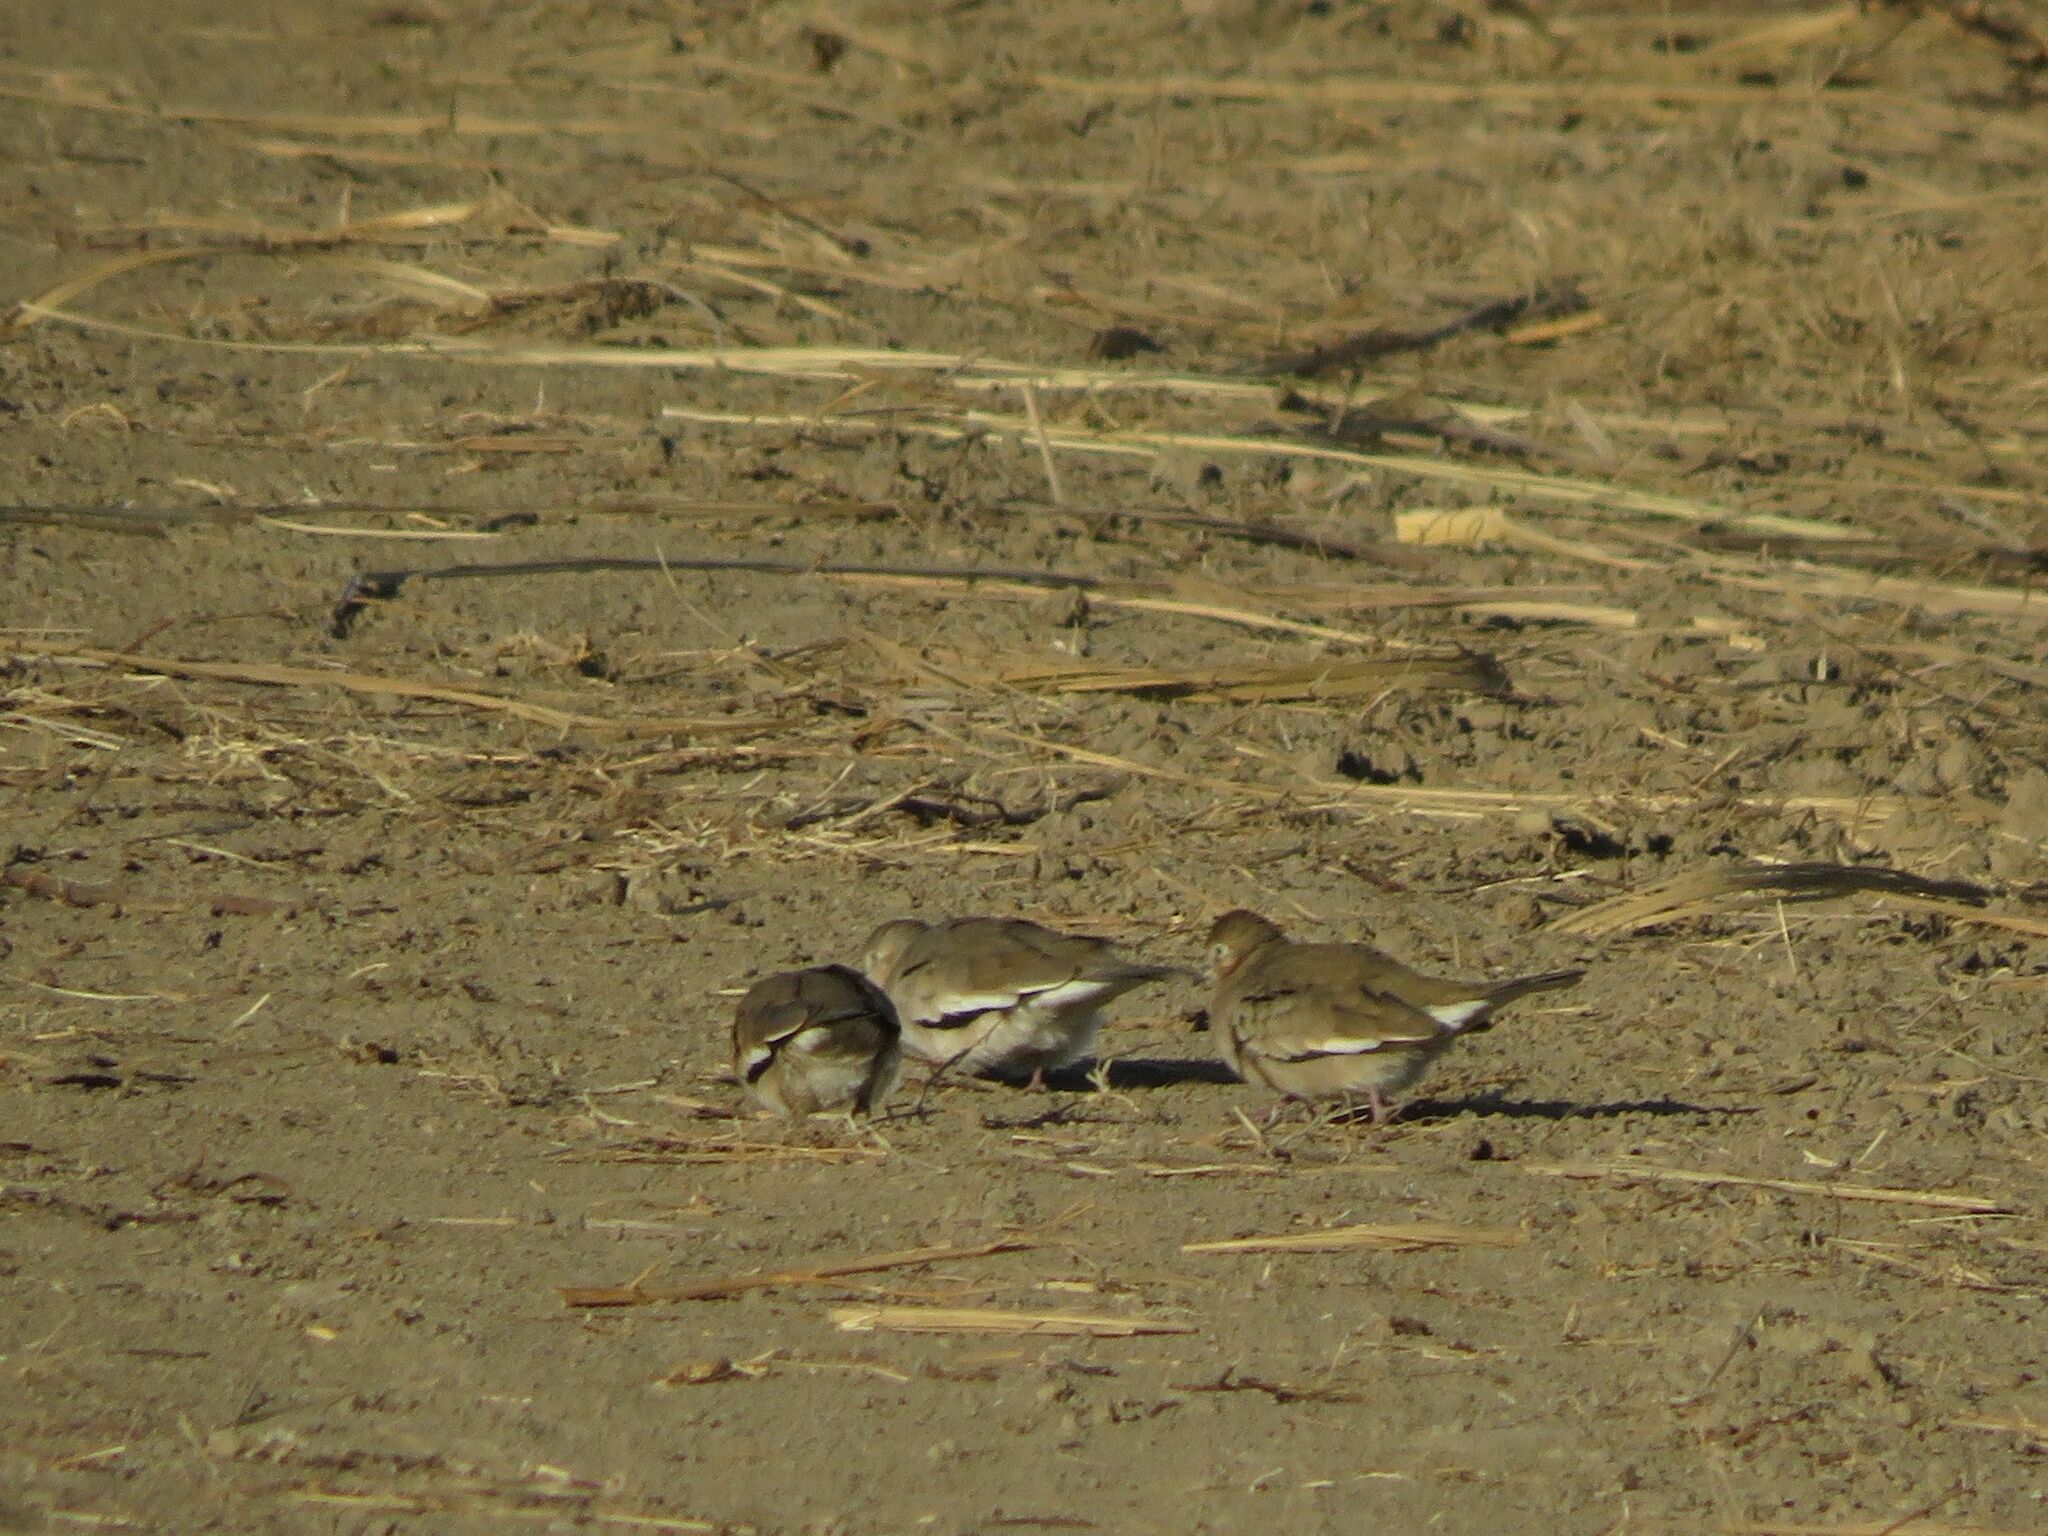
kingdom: Animalia
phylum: Chordata
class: Aves
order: Columbiformes
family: Columbidae
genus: Columbina
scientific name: Columbina picui
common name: Picui ground dove
